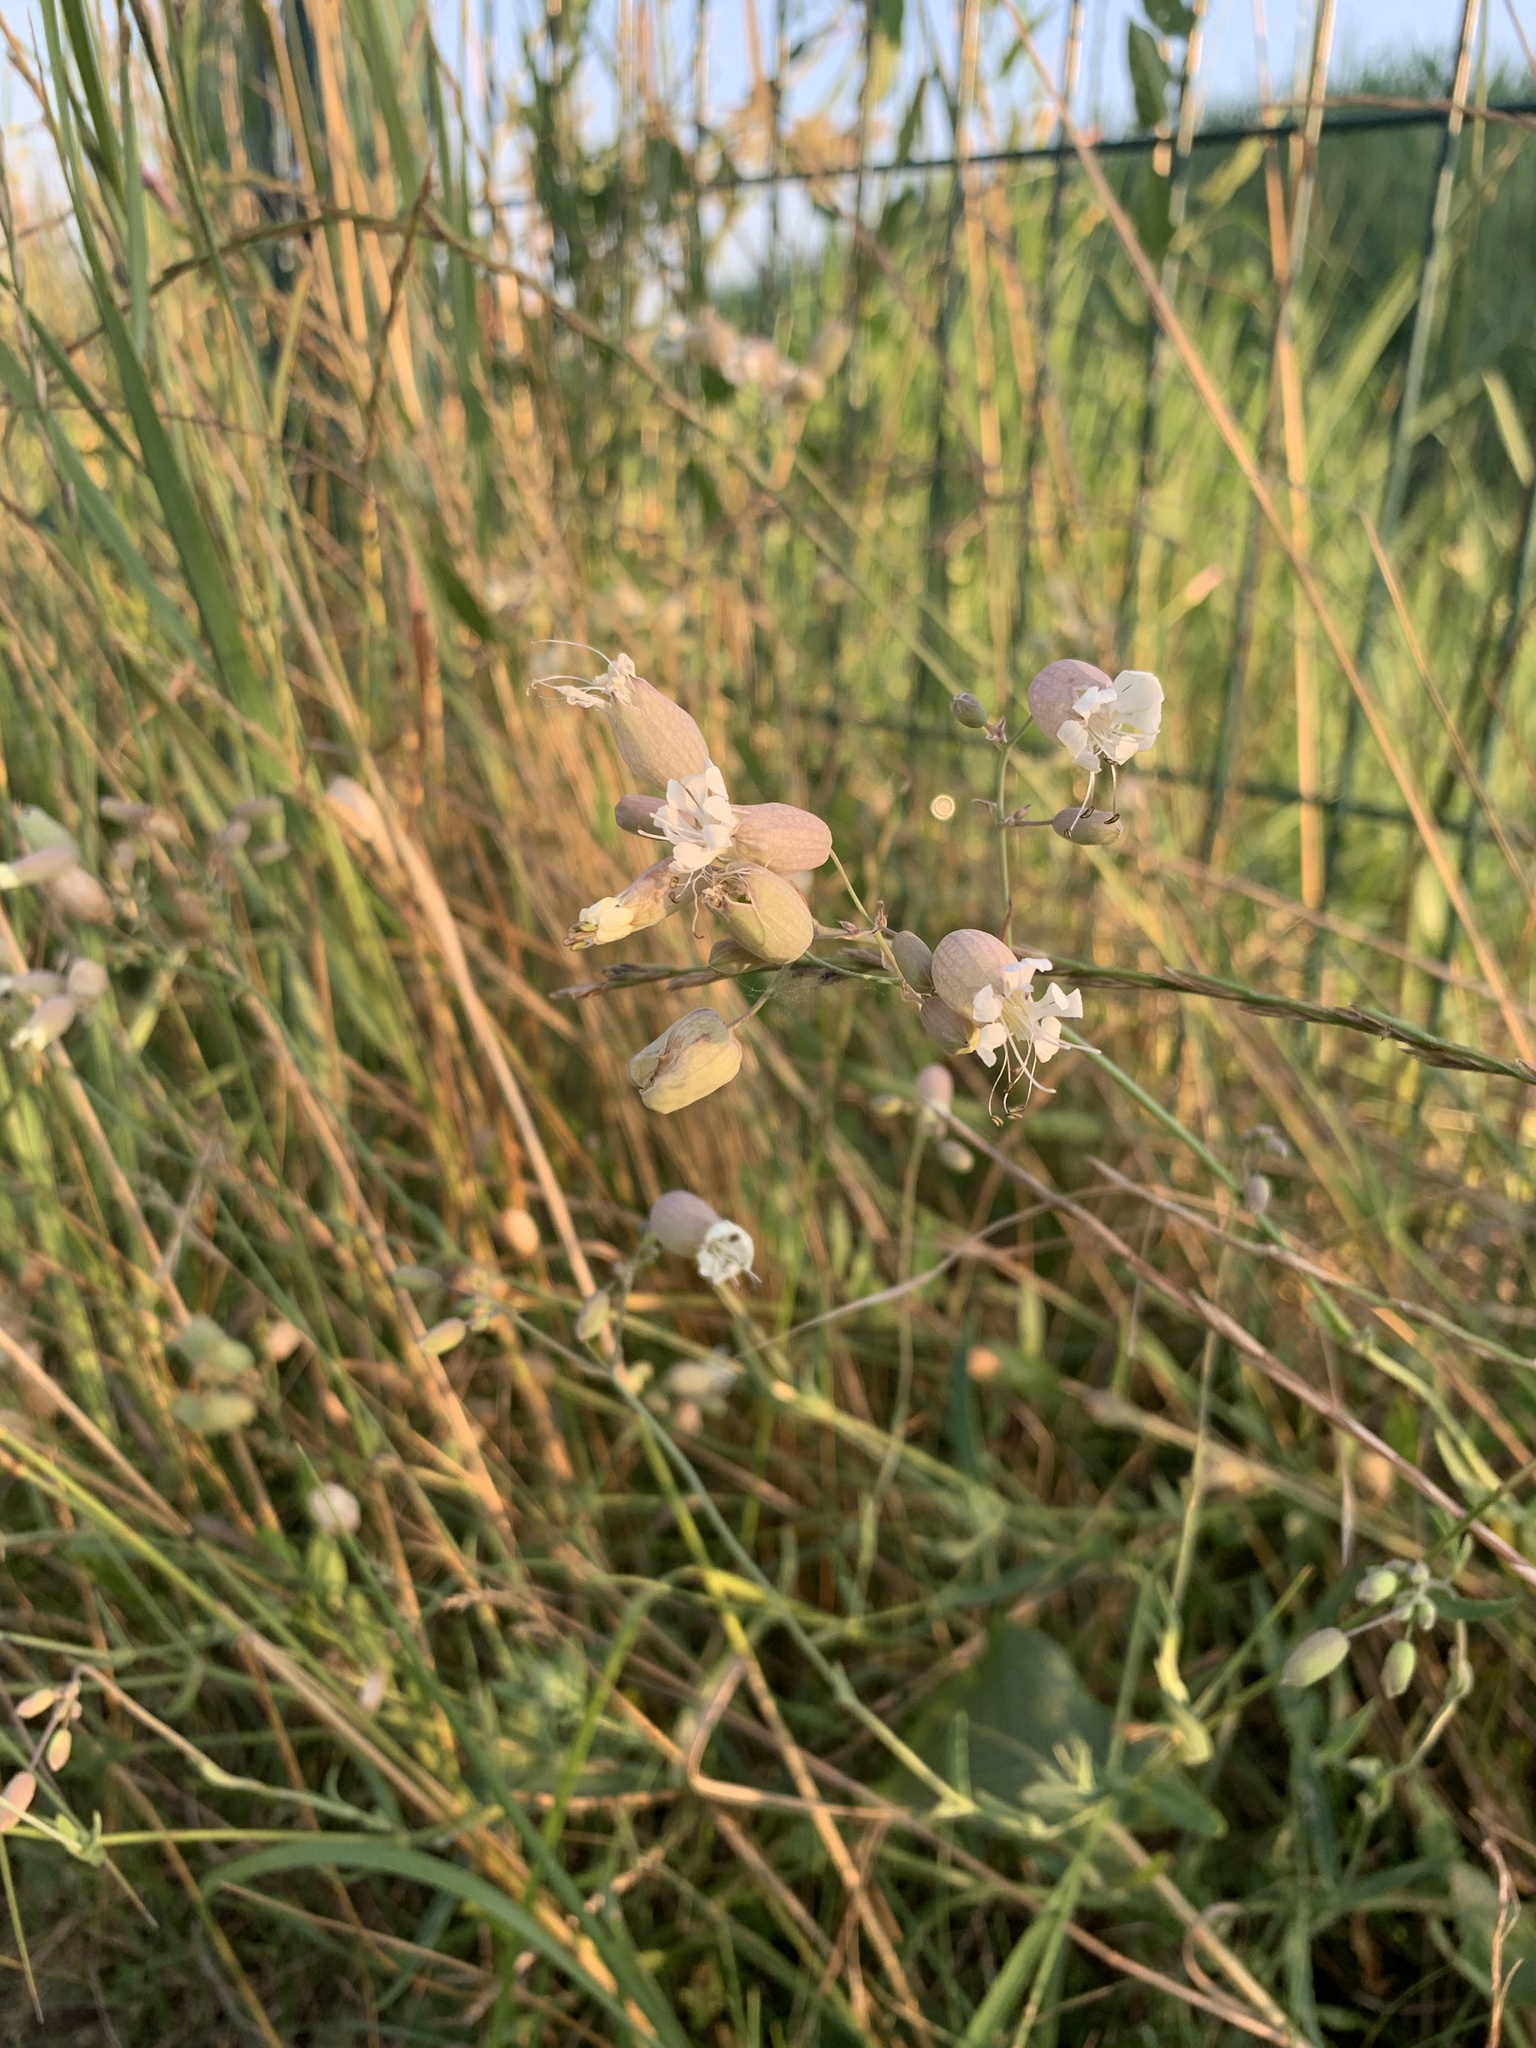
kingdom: Plantae
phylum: Tracheophyta
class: Magnoliopsida
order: Caryophyllales
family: Caryophyllaceae
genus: Silene
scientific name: Silene vulgaris
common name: Bladder campion
